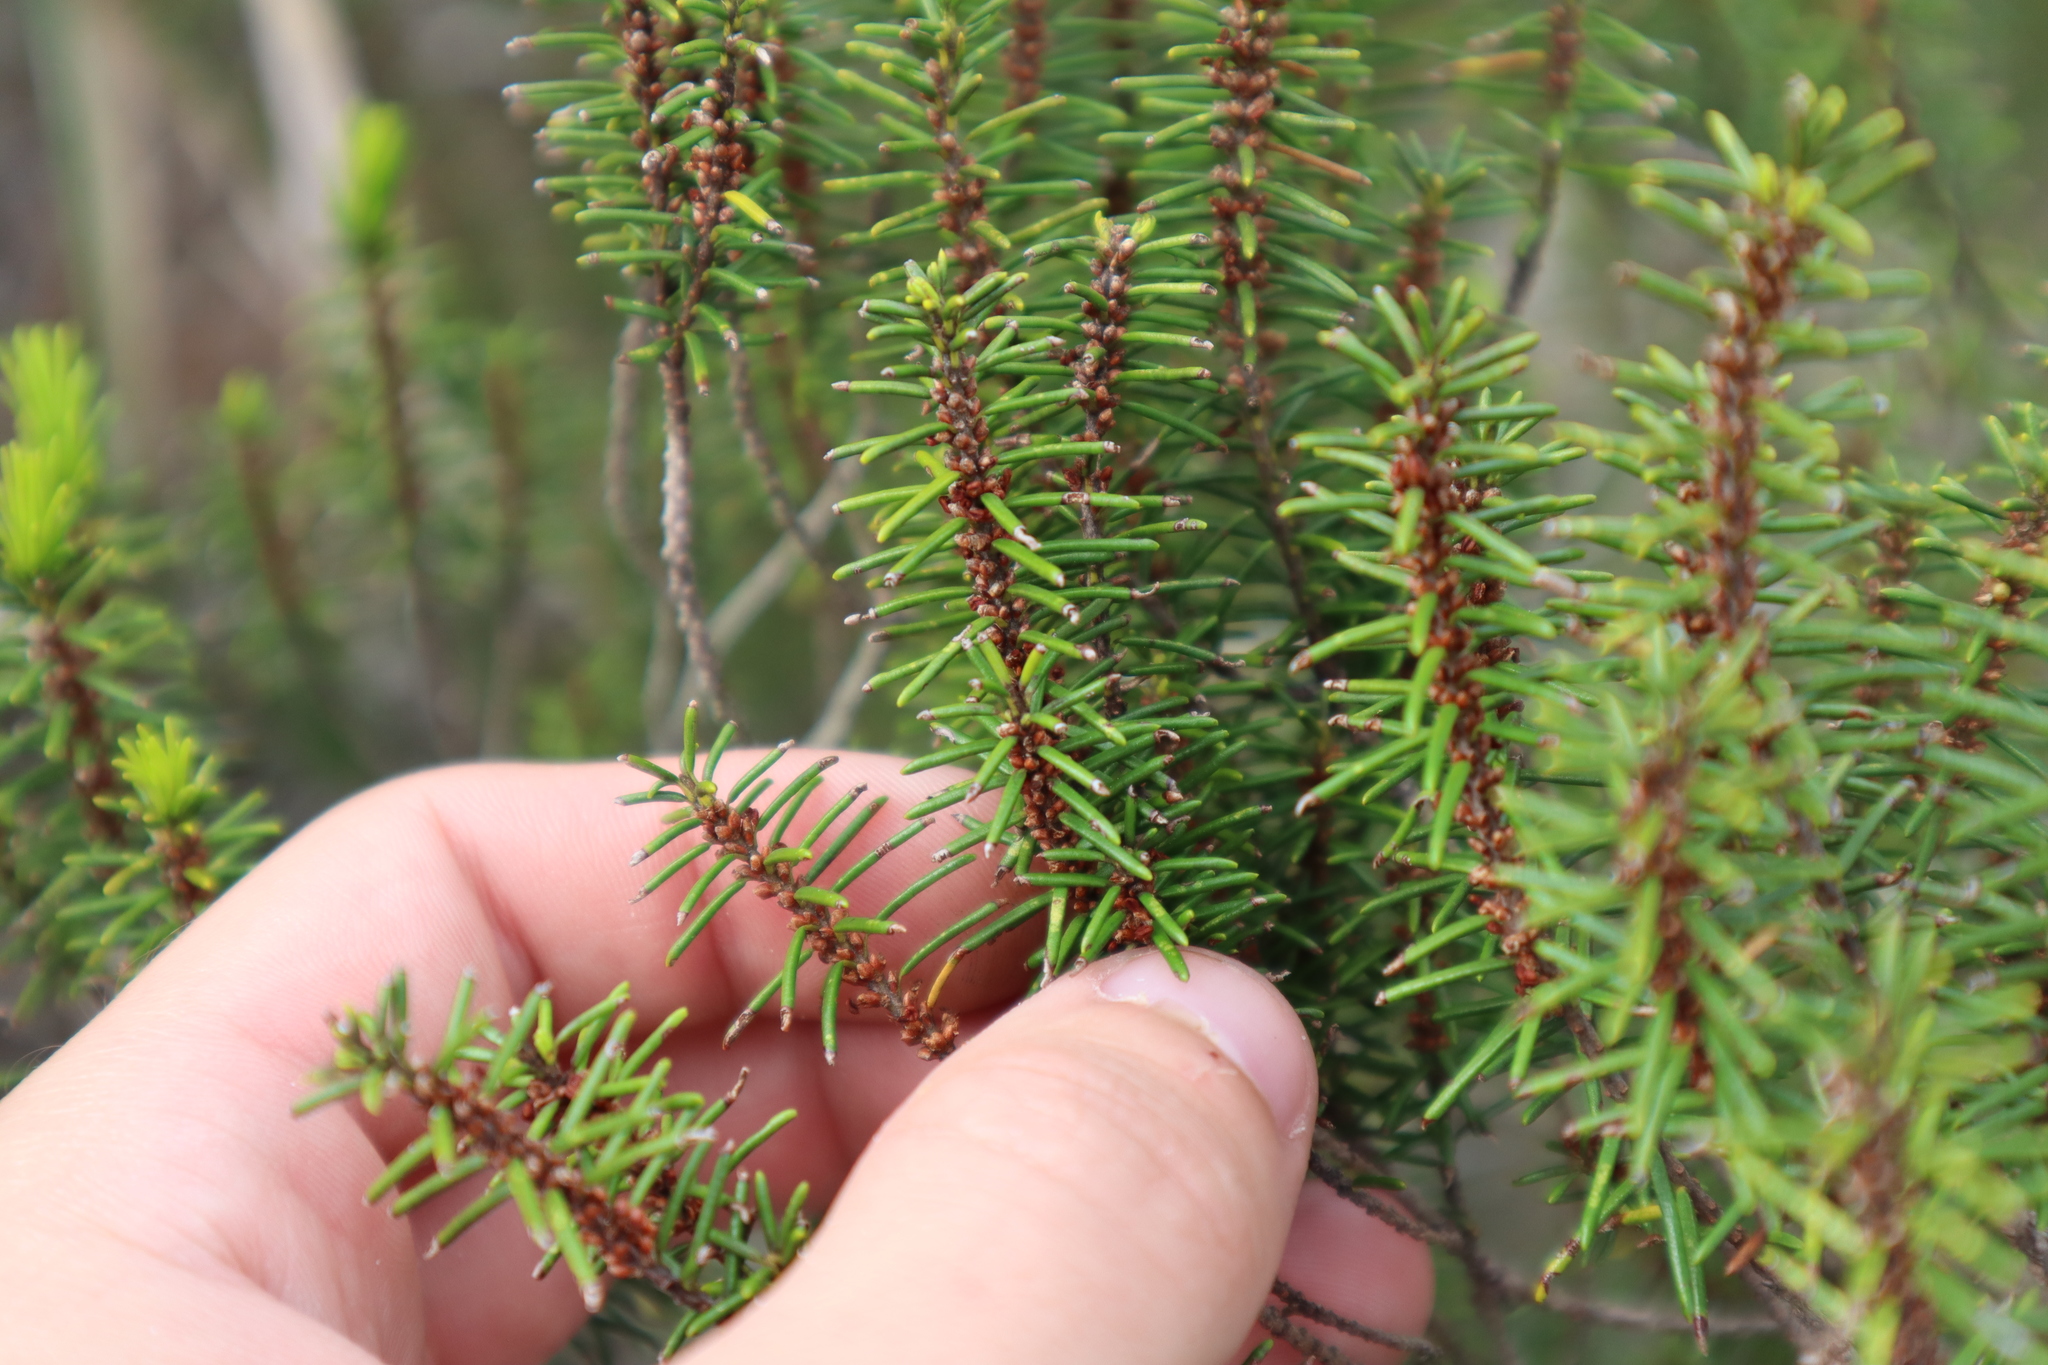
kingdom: Plantae
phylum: Tracheophyta
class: Magnoliopsida
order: Ericales
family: Ericaceae
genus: Ceratiola
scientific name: Ceratiola ericoides
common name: Sandhill-rosemary
